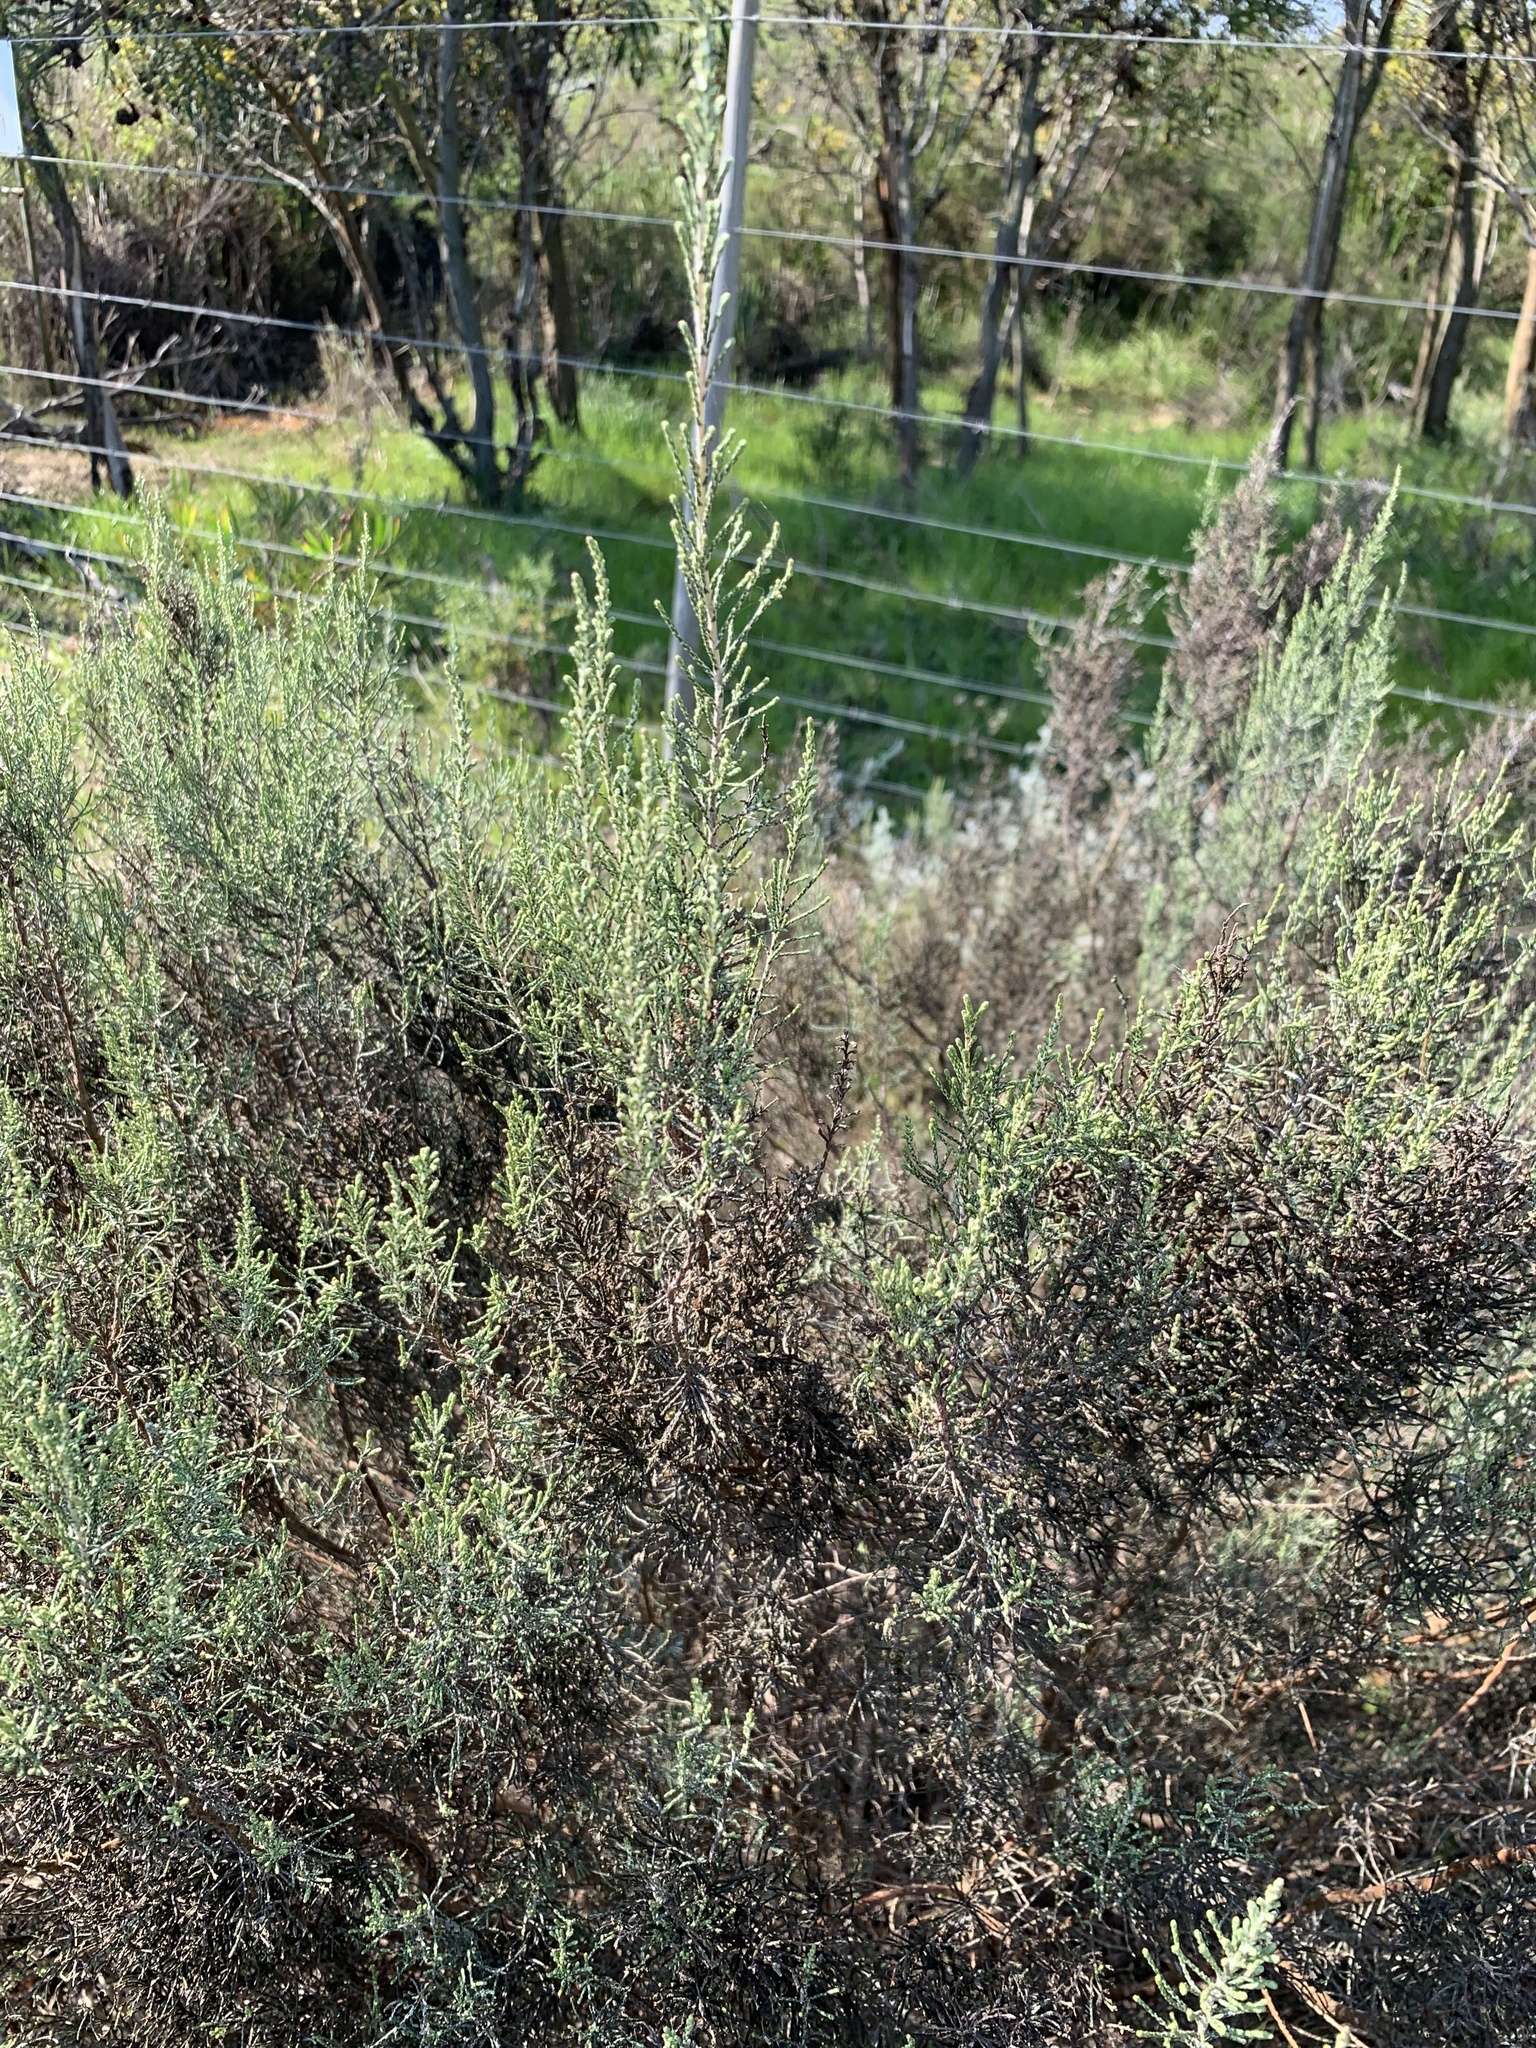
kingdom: Plantae
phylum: Tracheophyta
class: Magnoliopsida
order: Asterales
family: Asteraceae
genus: Dicerothamnus
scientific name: Dicerothamnus rhinocerotis
